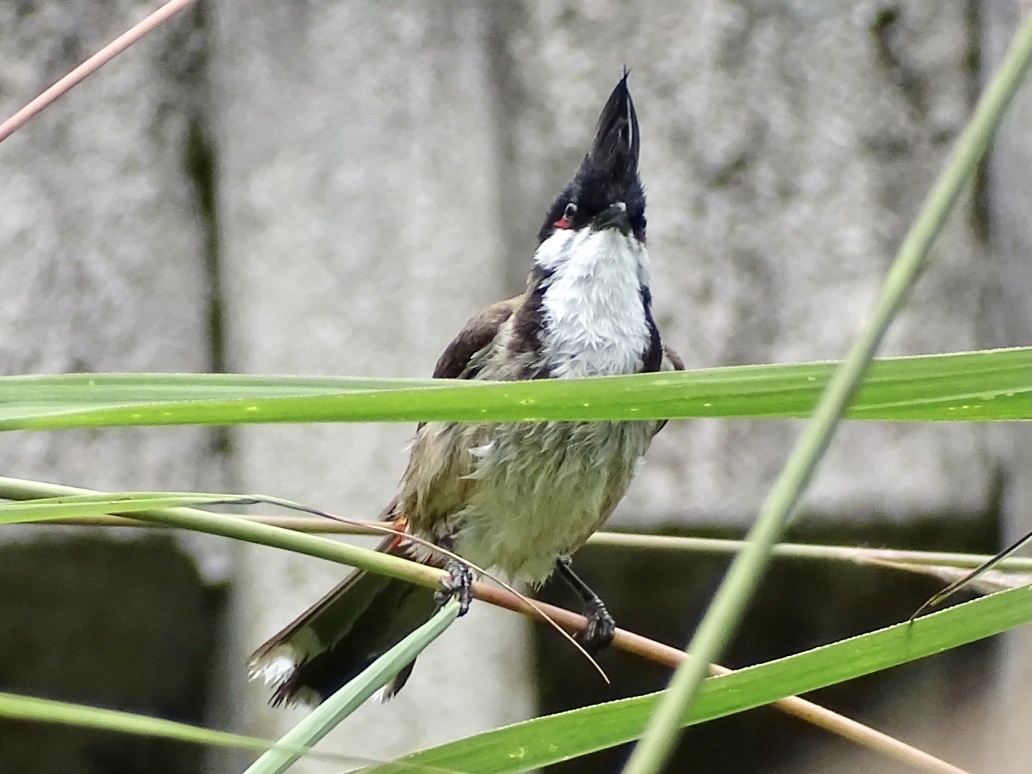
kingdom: Animalia
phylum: Chordata
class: Aves
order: Passeriformes
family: Pycnonotidae
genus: Pycnonotus
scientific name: Pycnonotus jocosus
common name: Red-whiskered bulbul
